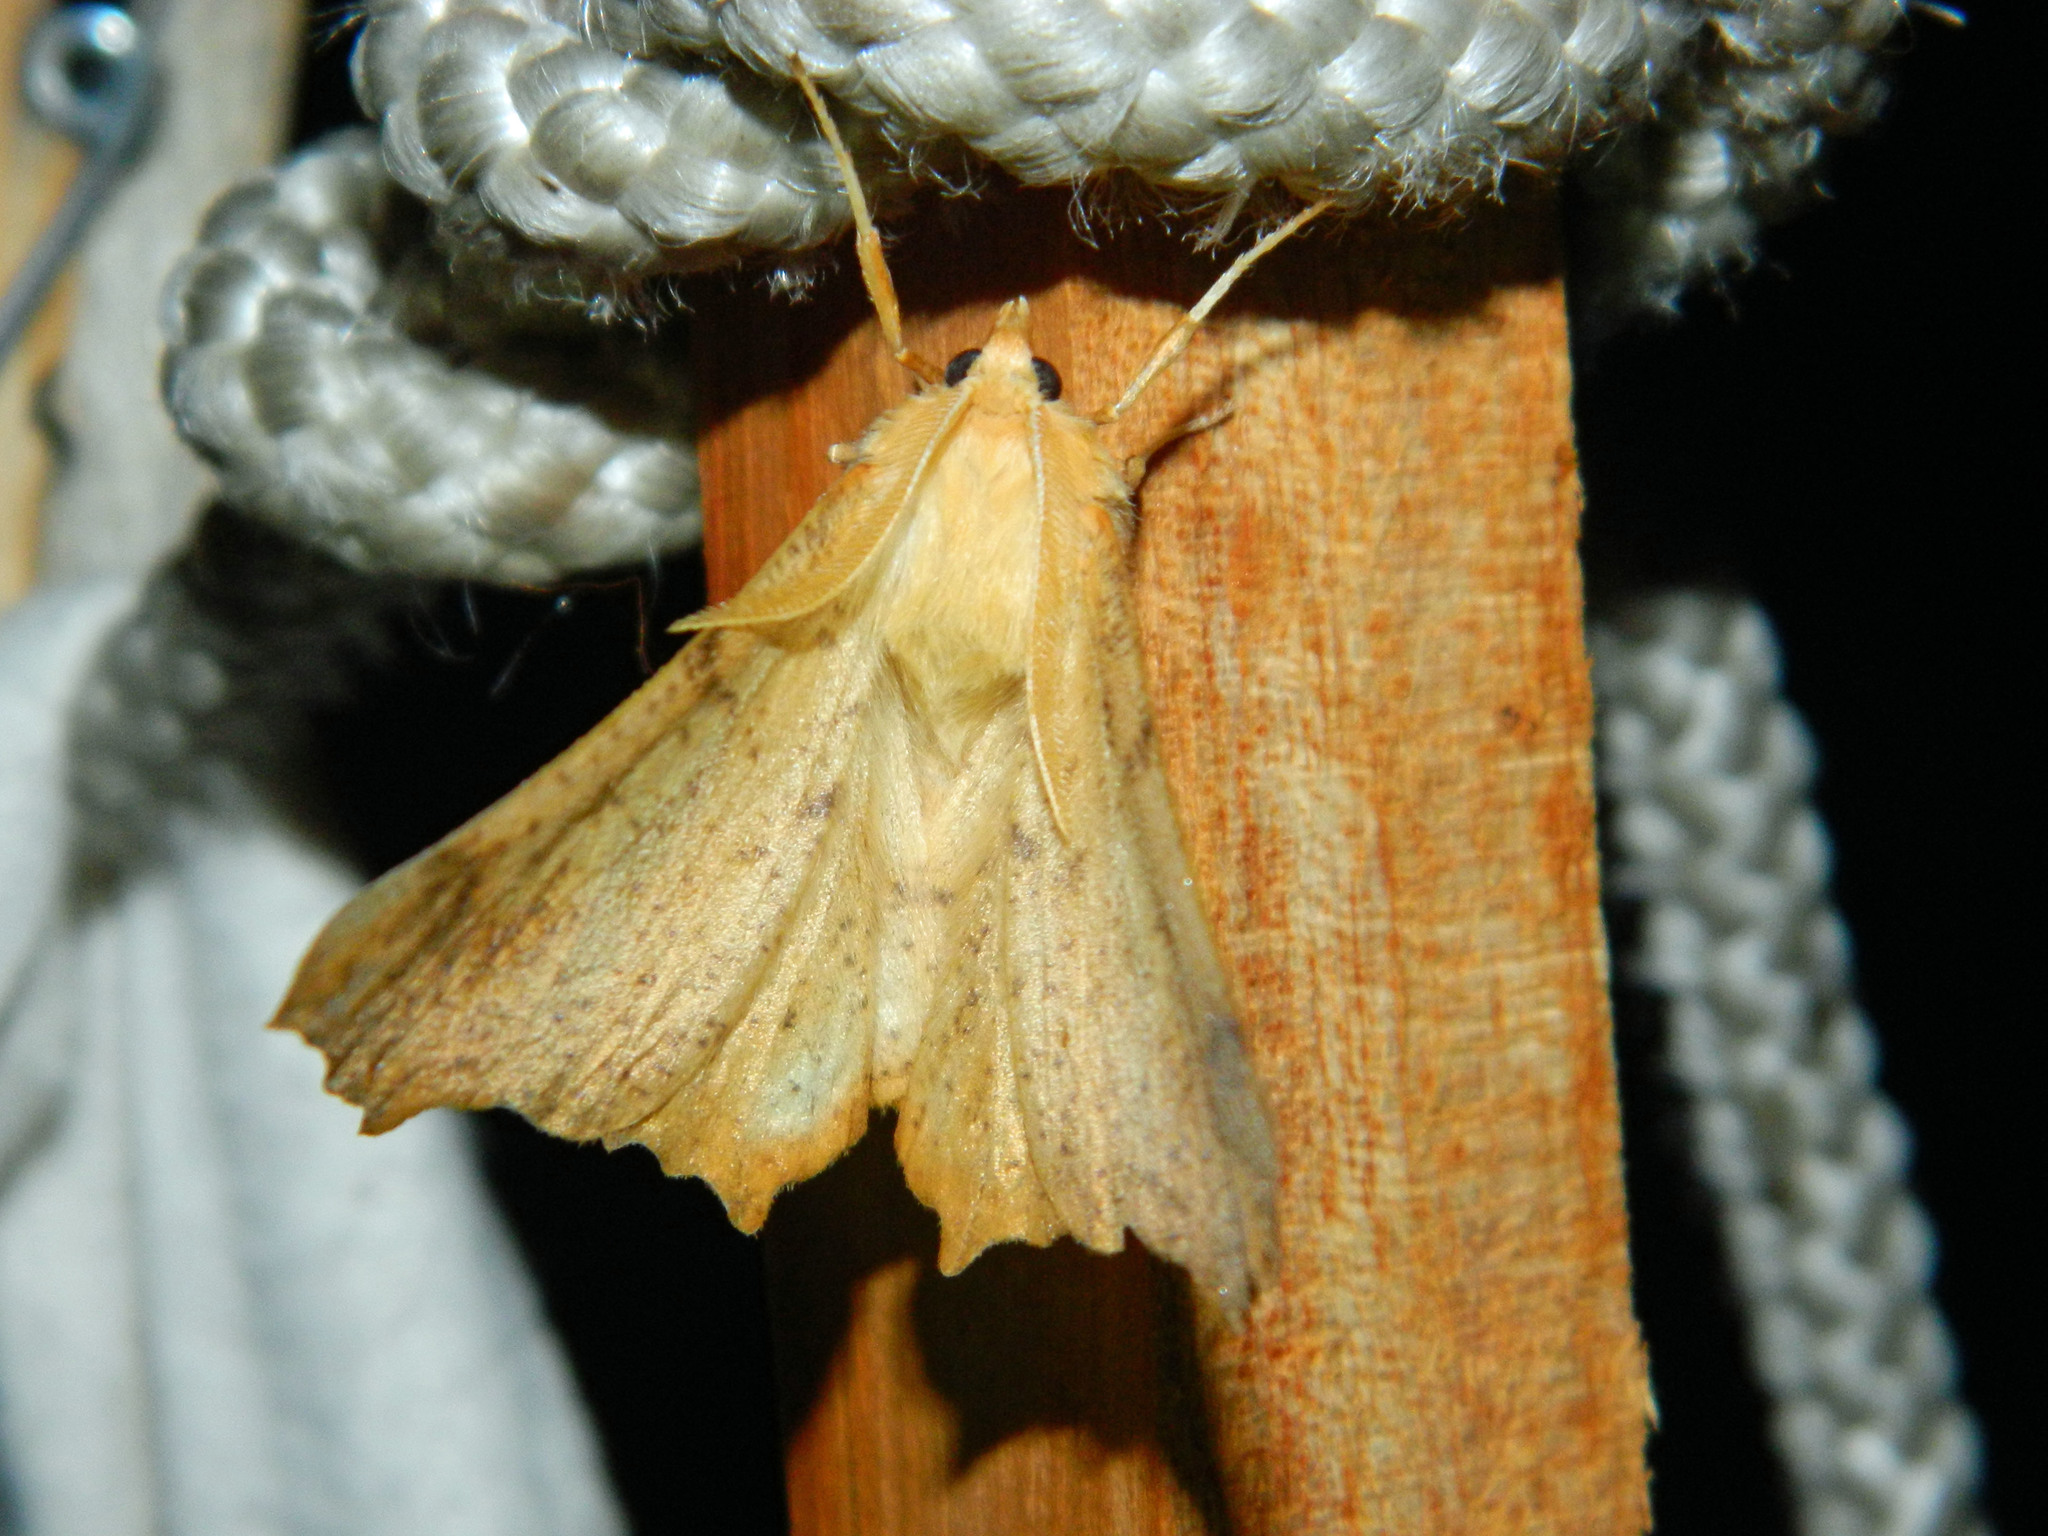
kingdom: Animalia
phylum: Arthropoda
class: Insecta
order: Lepidoptera
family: Geometridae
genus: Ennomos
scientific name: Ennomos magnaria
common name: Maple spanworm
